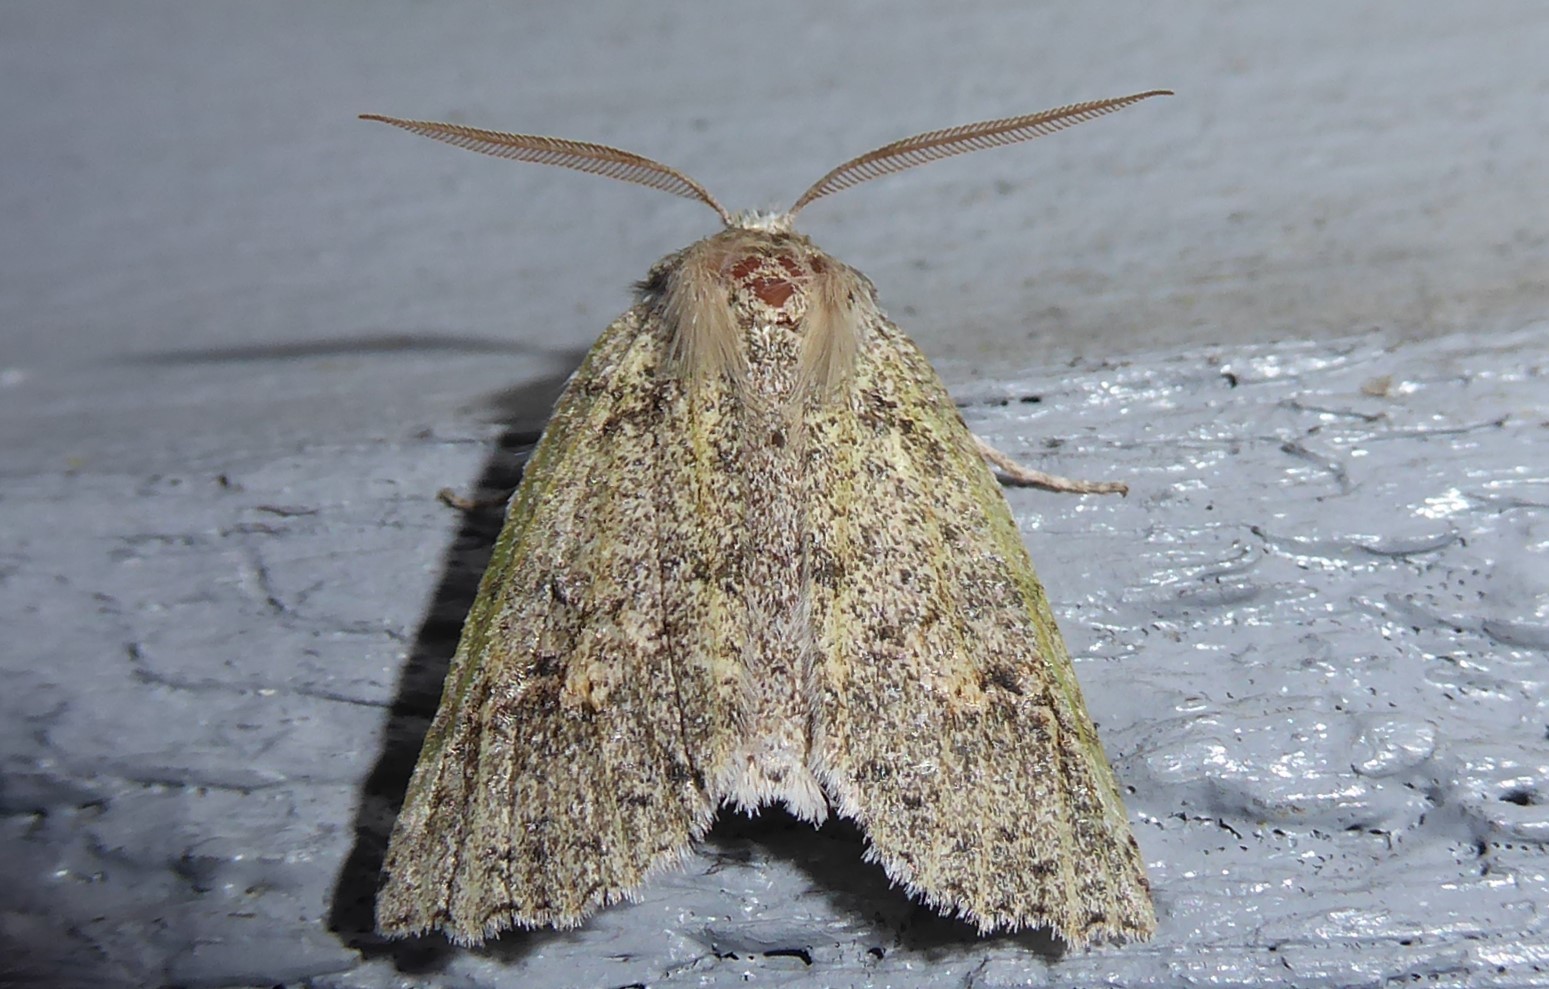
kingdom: Animalia
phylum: Arthropoda
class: Insecta
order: Lepidoptera
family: Geometridae
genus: Declana
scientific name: Declana floccosa
